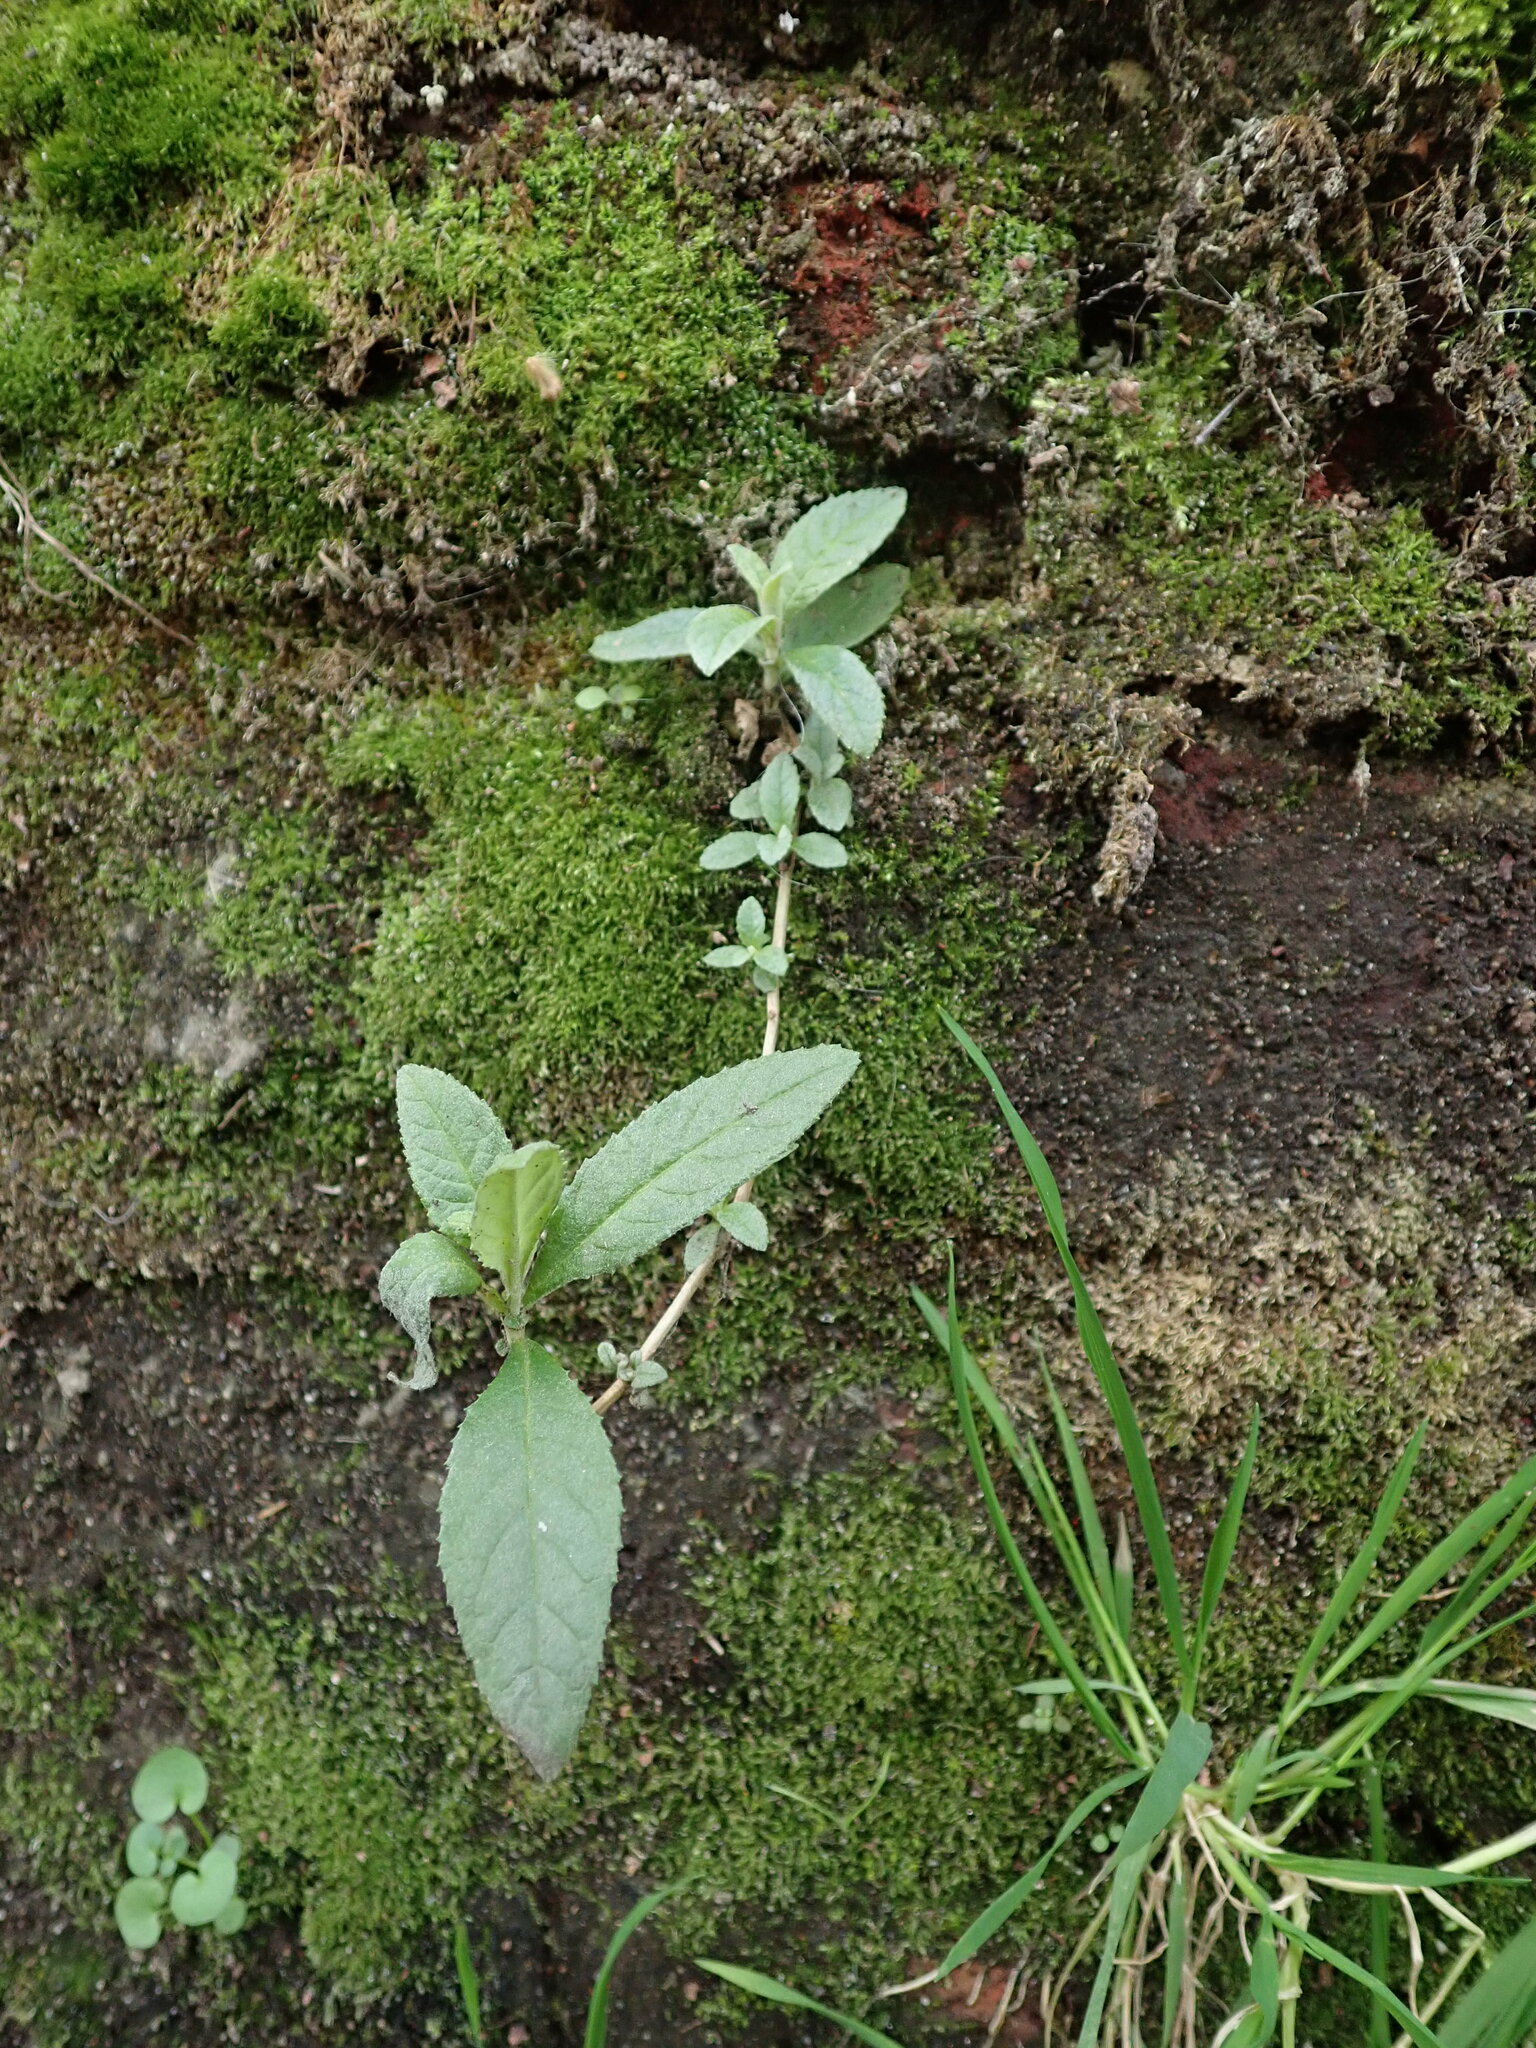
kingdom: Plantae
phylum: Tracheophyta
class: Magnoliopsida
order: Lamiales
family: Scrophulariaceae
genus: Buddleja
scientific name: Buddleja davidii
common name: Butterfly-bush
